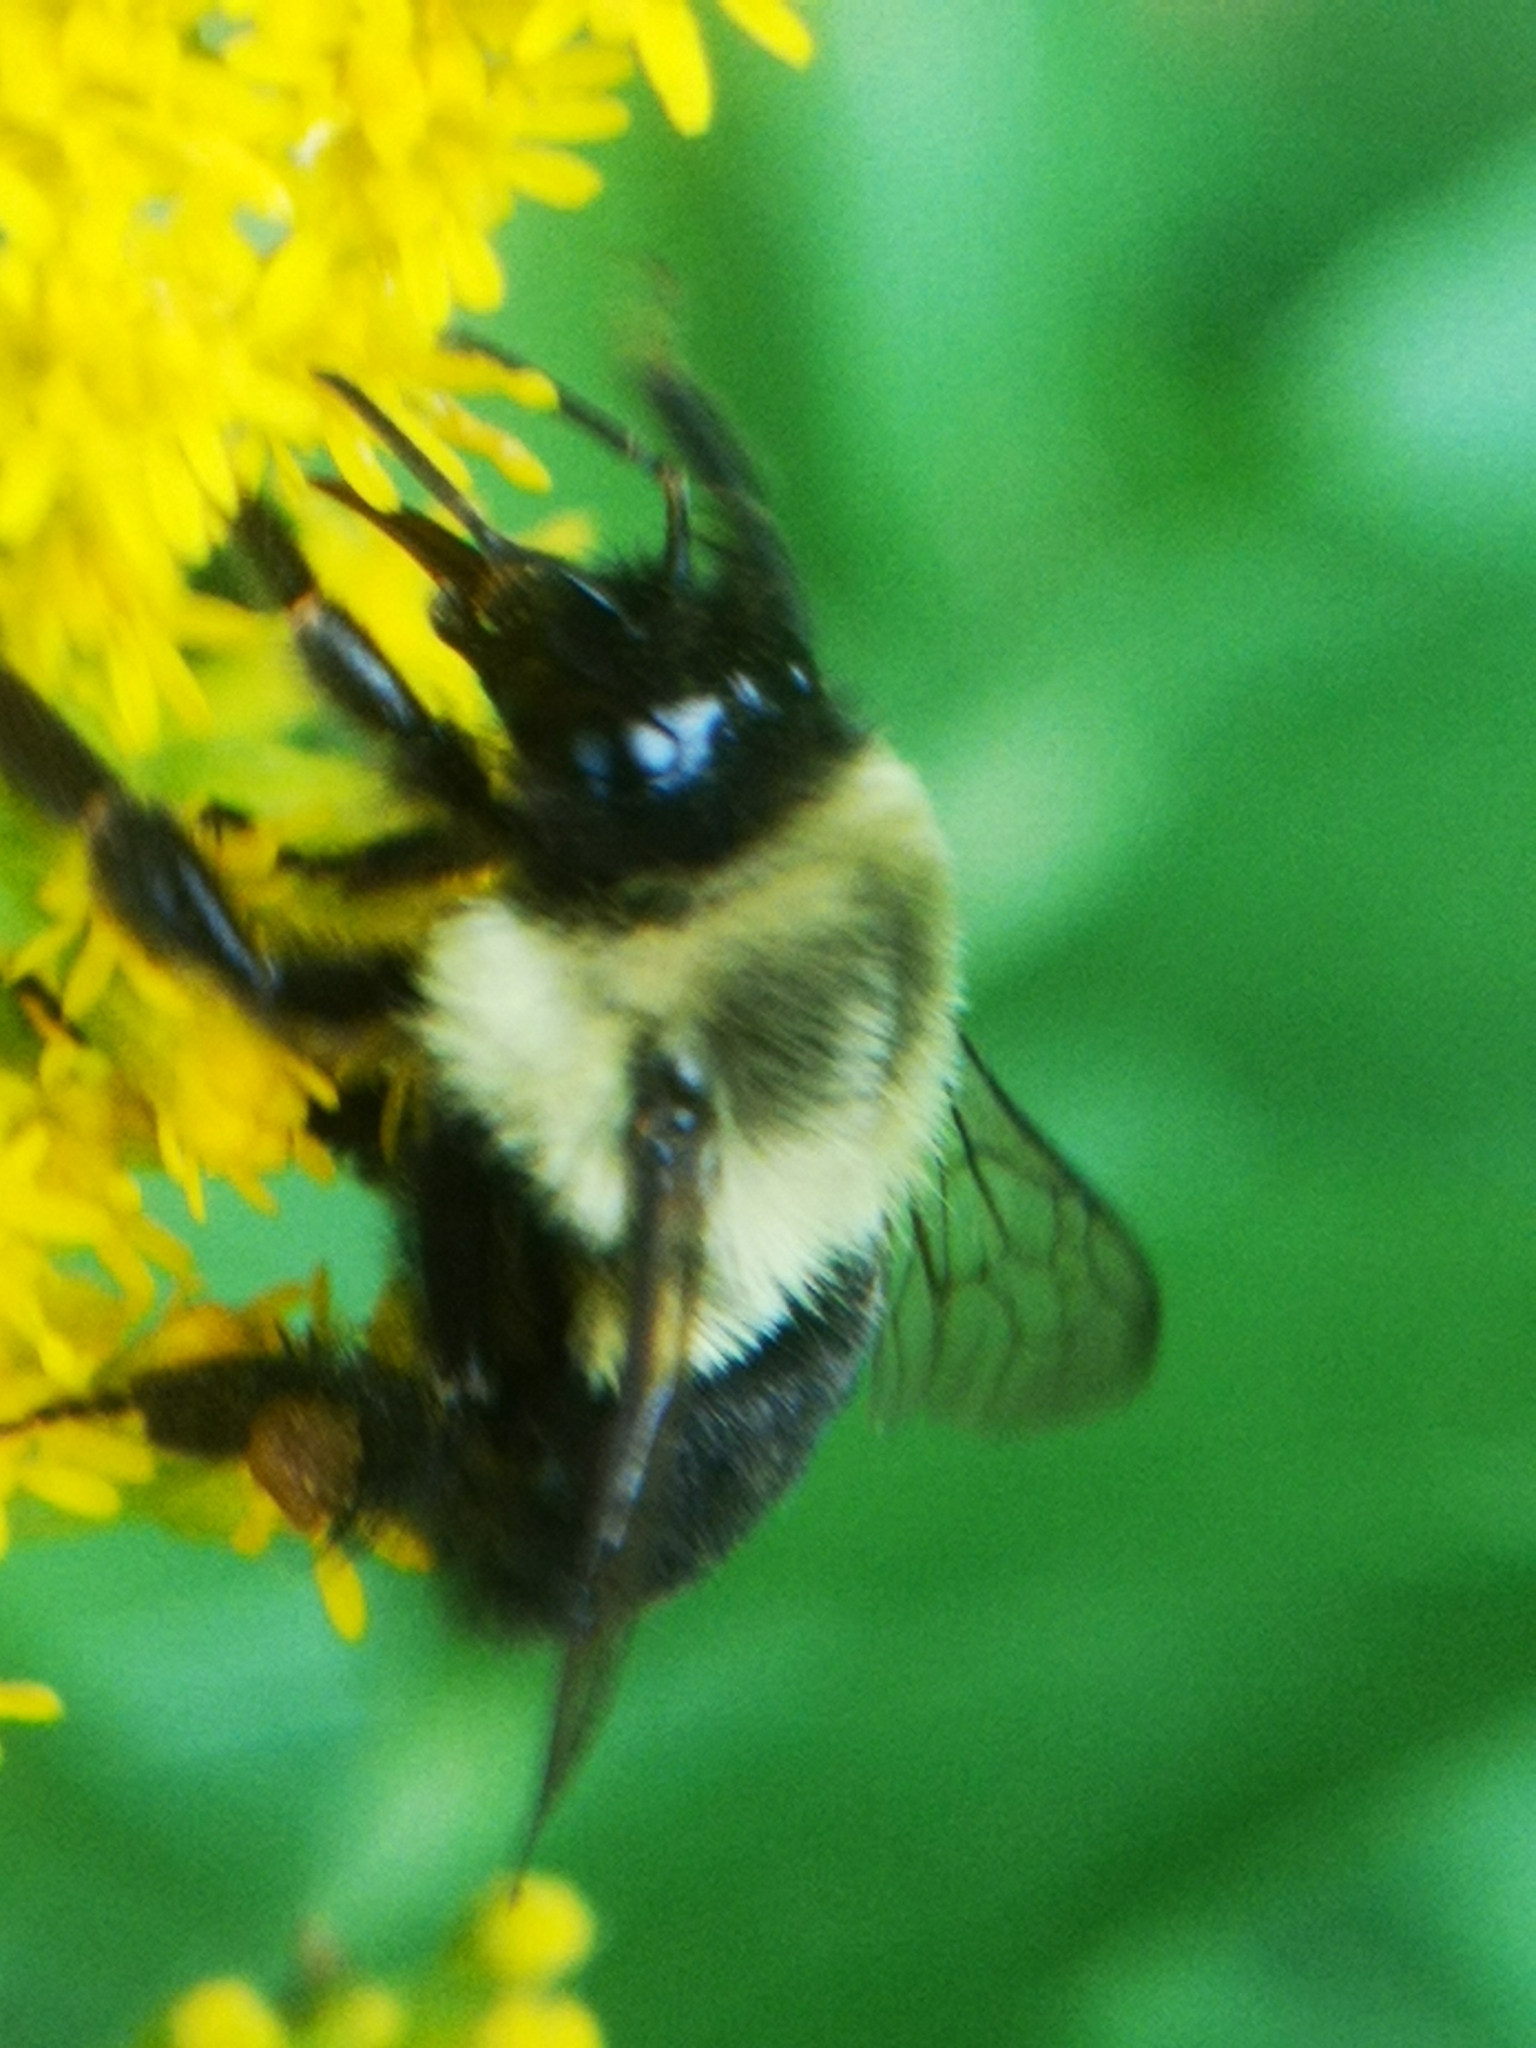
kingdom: Animalia
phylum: Arthropoda
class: Insecta
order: Hymenoptera
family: Apidae
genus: Bombus
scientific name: Bombus impatiens
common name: Common eastern bumble bee
